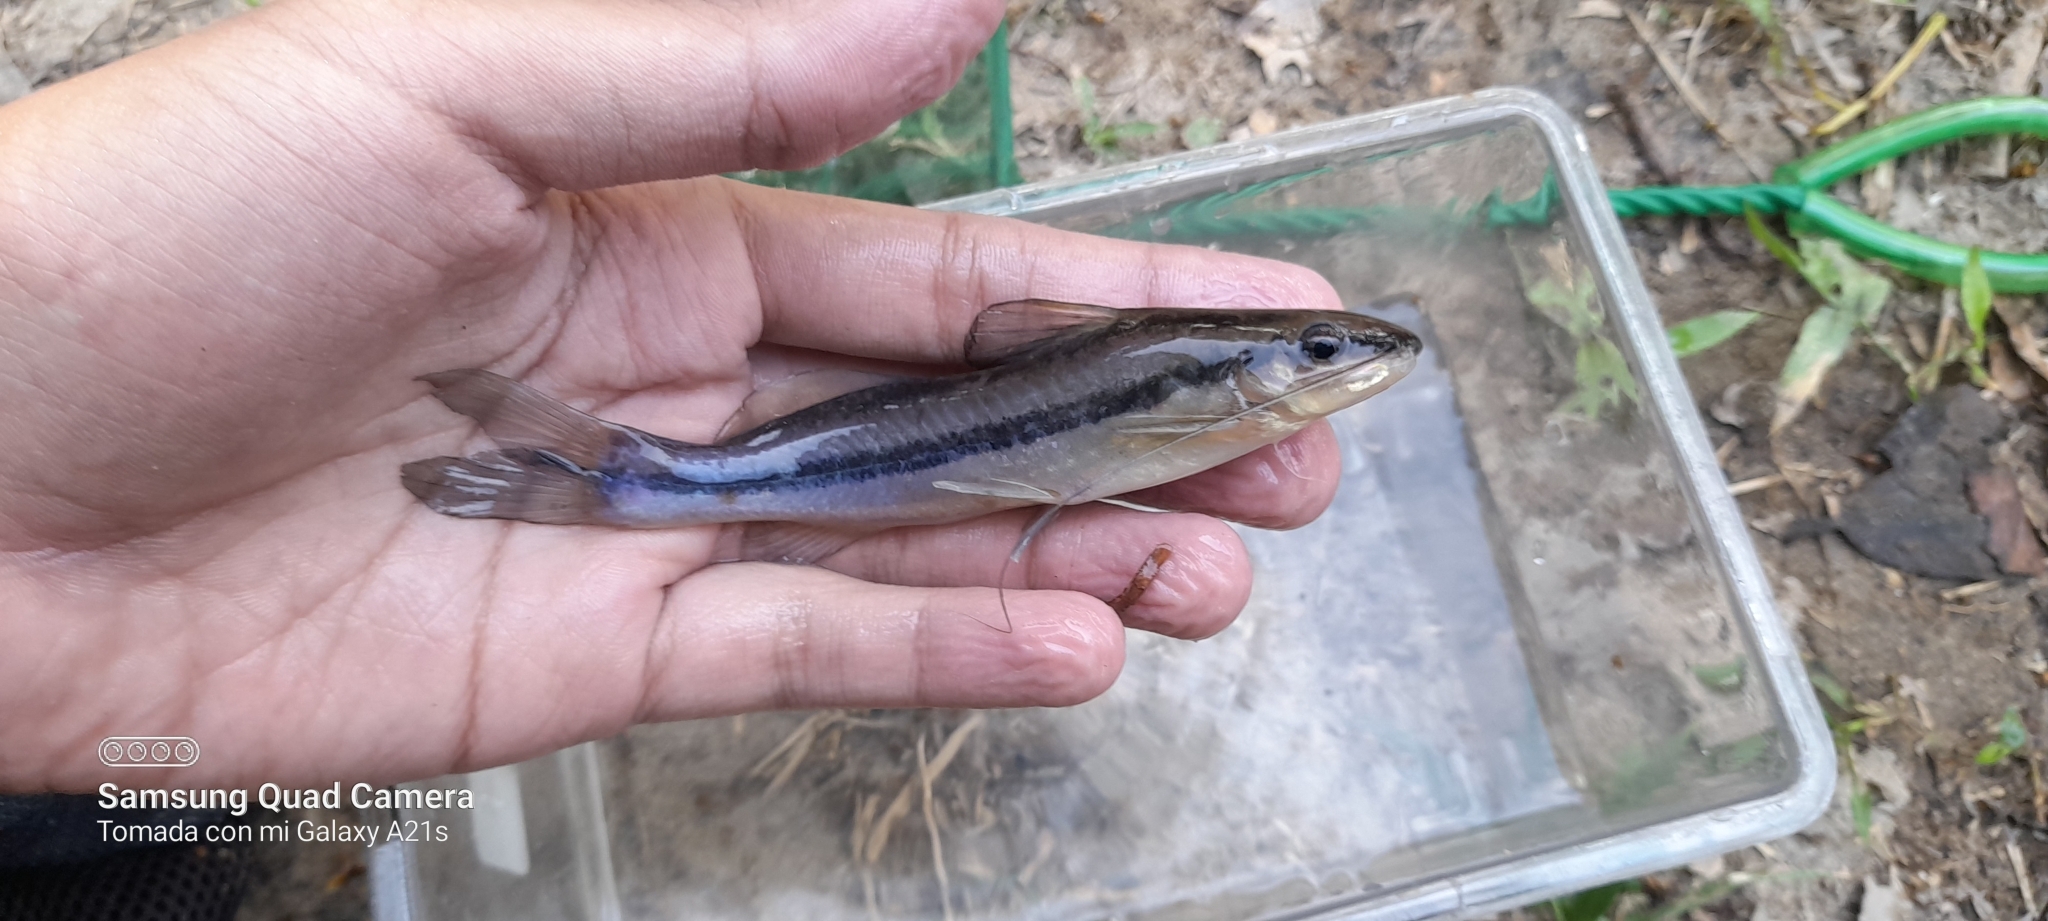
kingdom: Animalia
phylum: Chordata
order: Siluriformes
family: Heptapteridae
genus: Pimelodella
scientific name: Pimelodella chagresi
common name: Catfish
